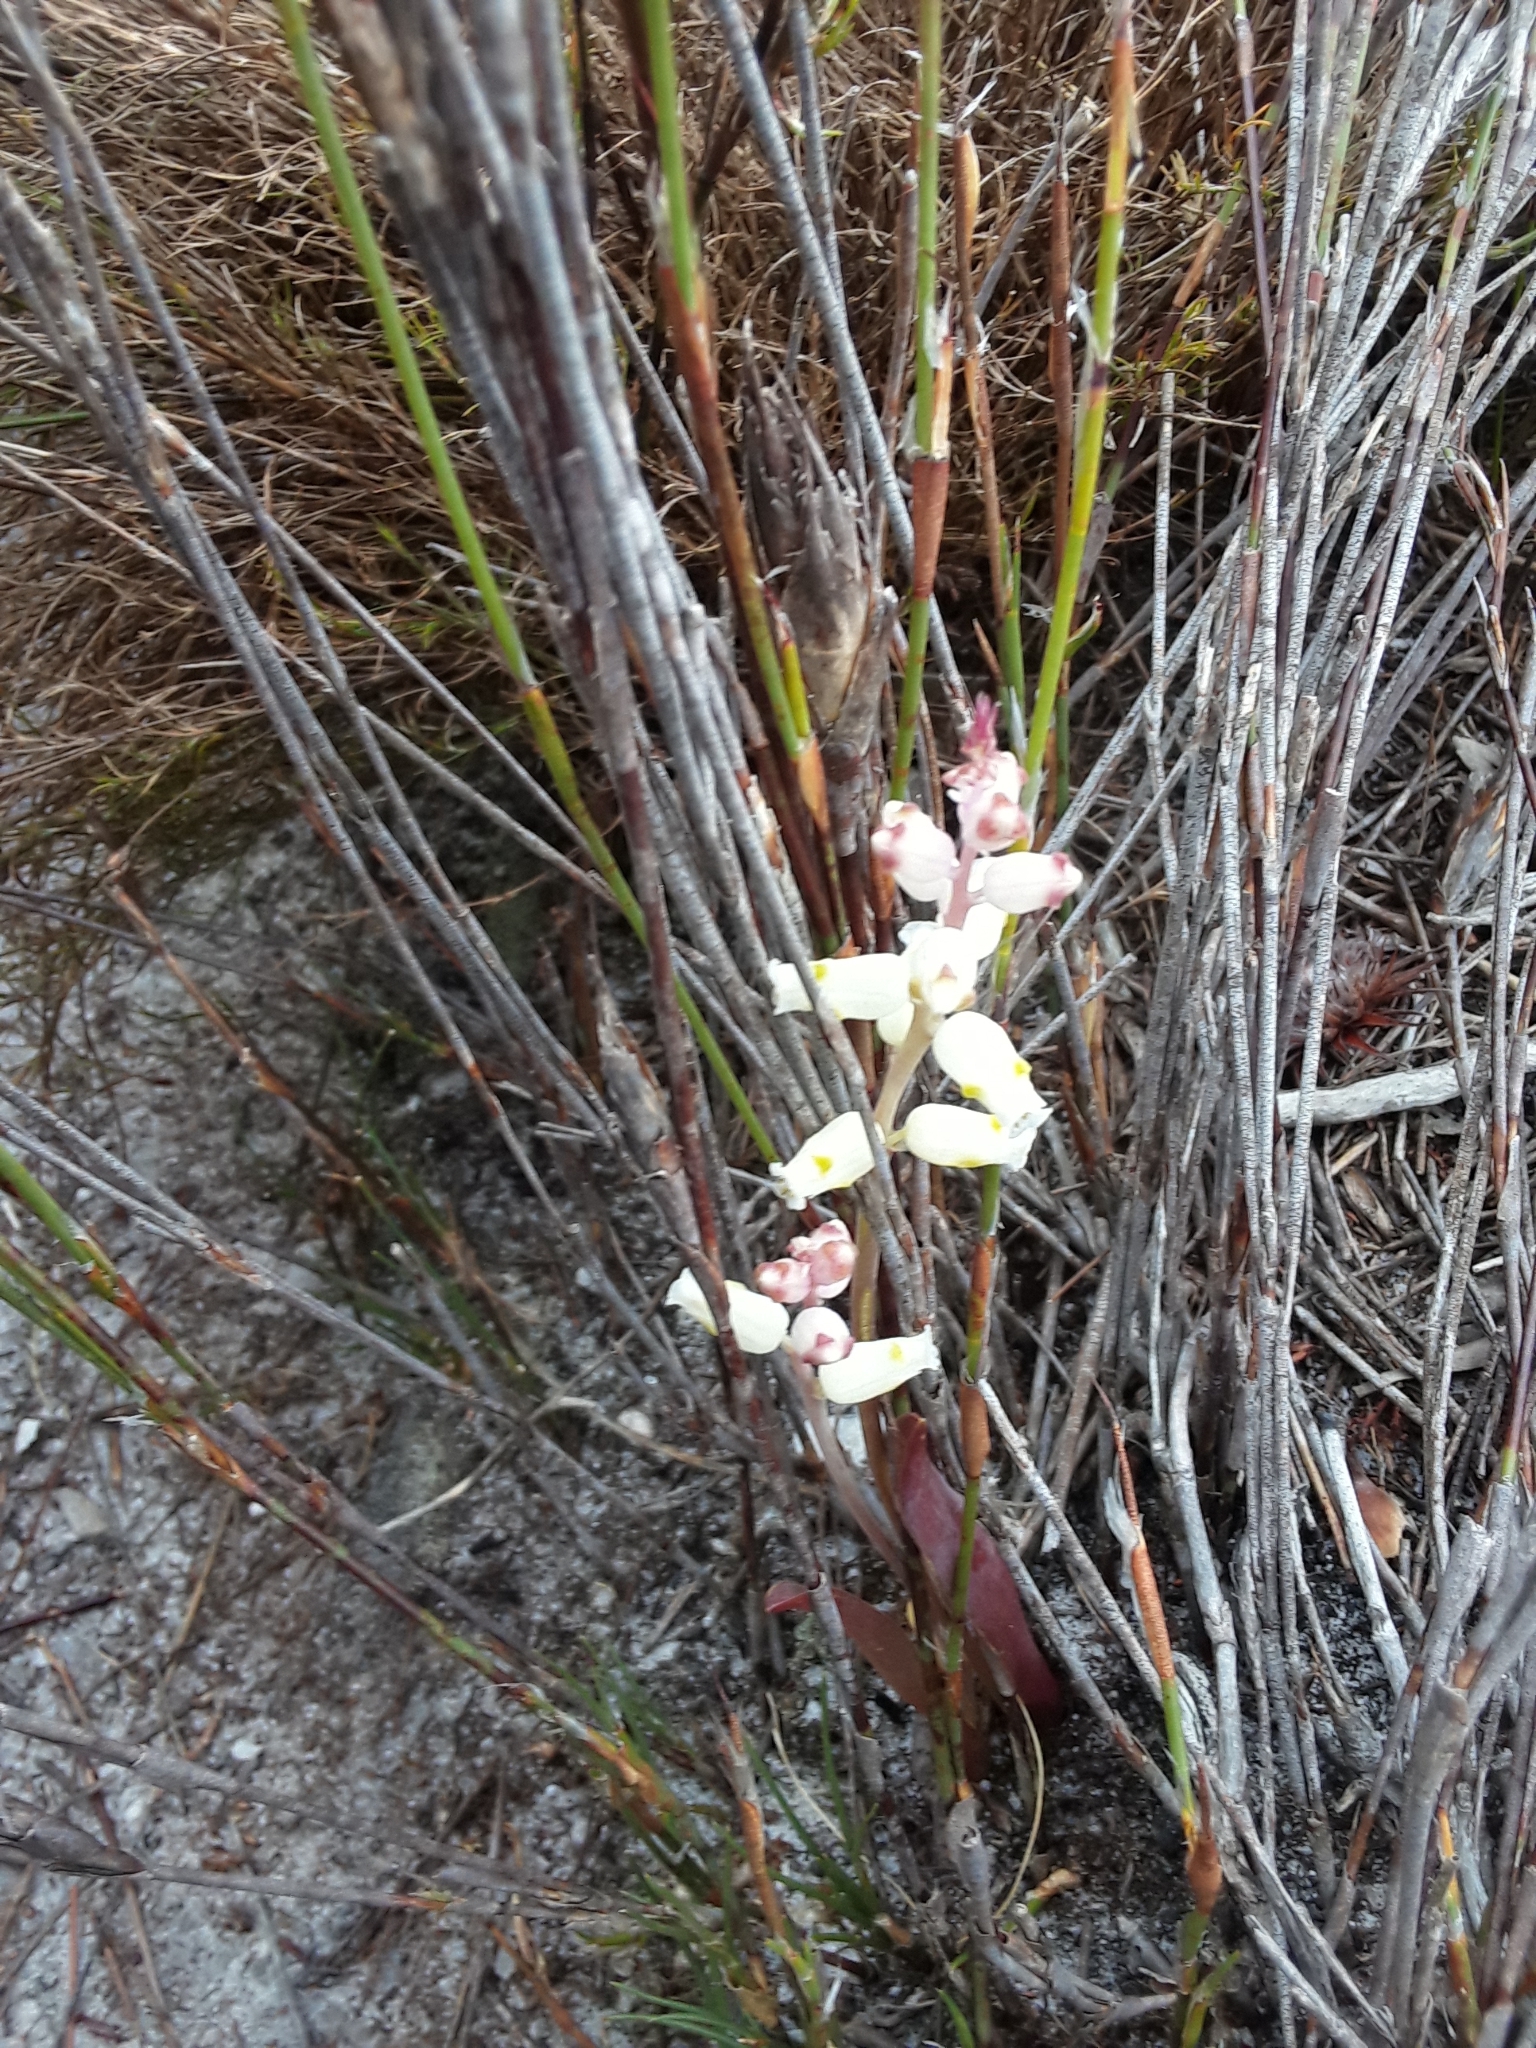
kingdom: Plantae
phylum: Tracheophyta
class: Liliopsida
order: Asparagales
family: Asparagaceae
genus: Lachenalia
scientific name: Lachenalia peersii
